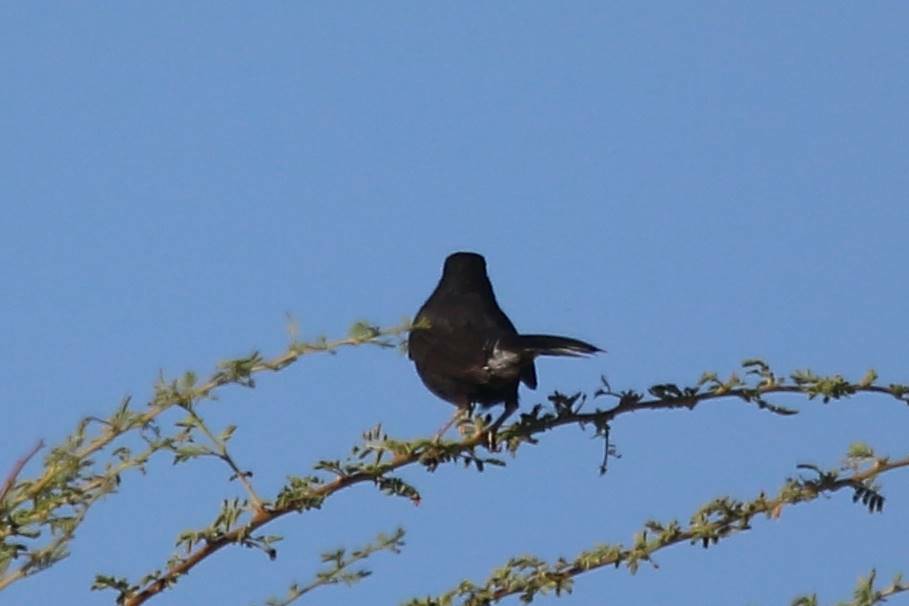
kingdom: Animalia
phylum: Chordata
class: Aves
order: Passeriformes
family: Muscicapidae
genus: Cercotrichas
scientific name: Cercotrichas podobe
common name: Black scrub robin
